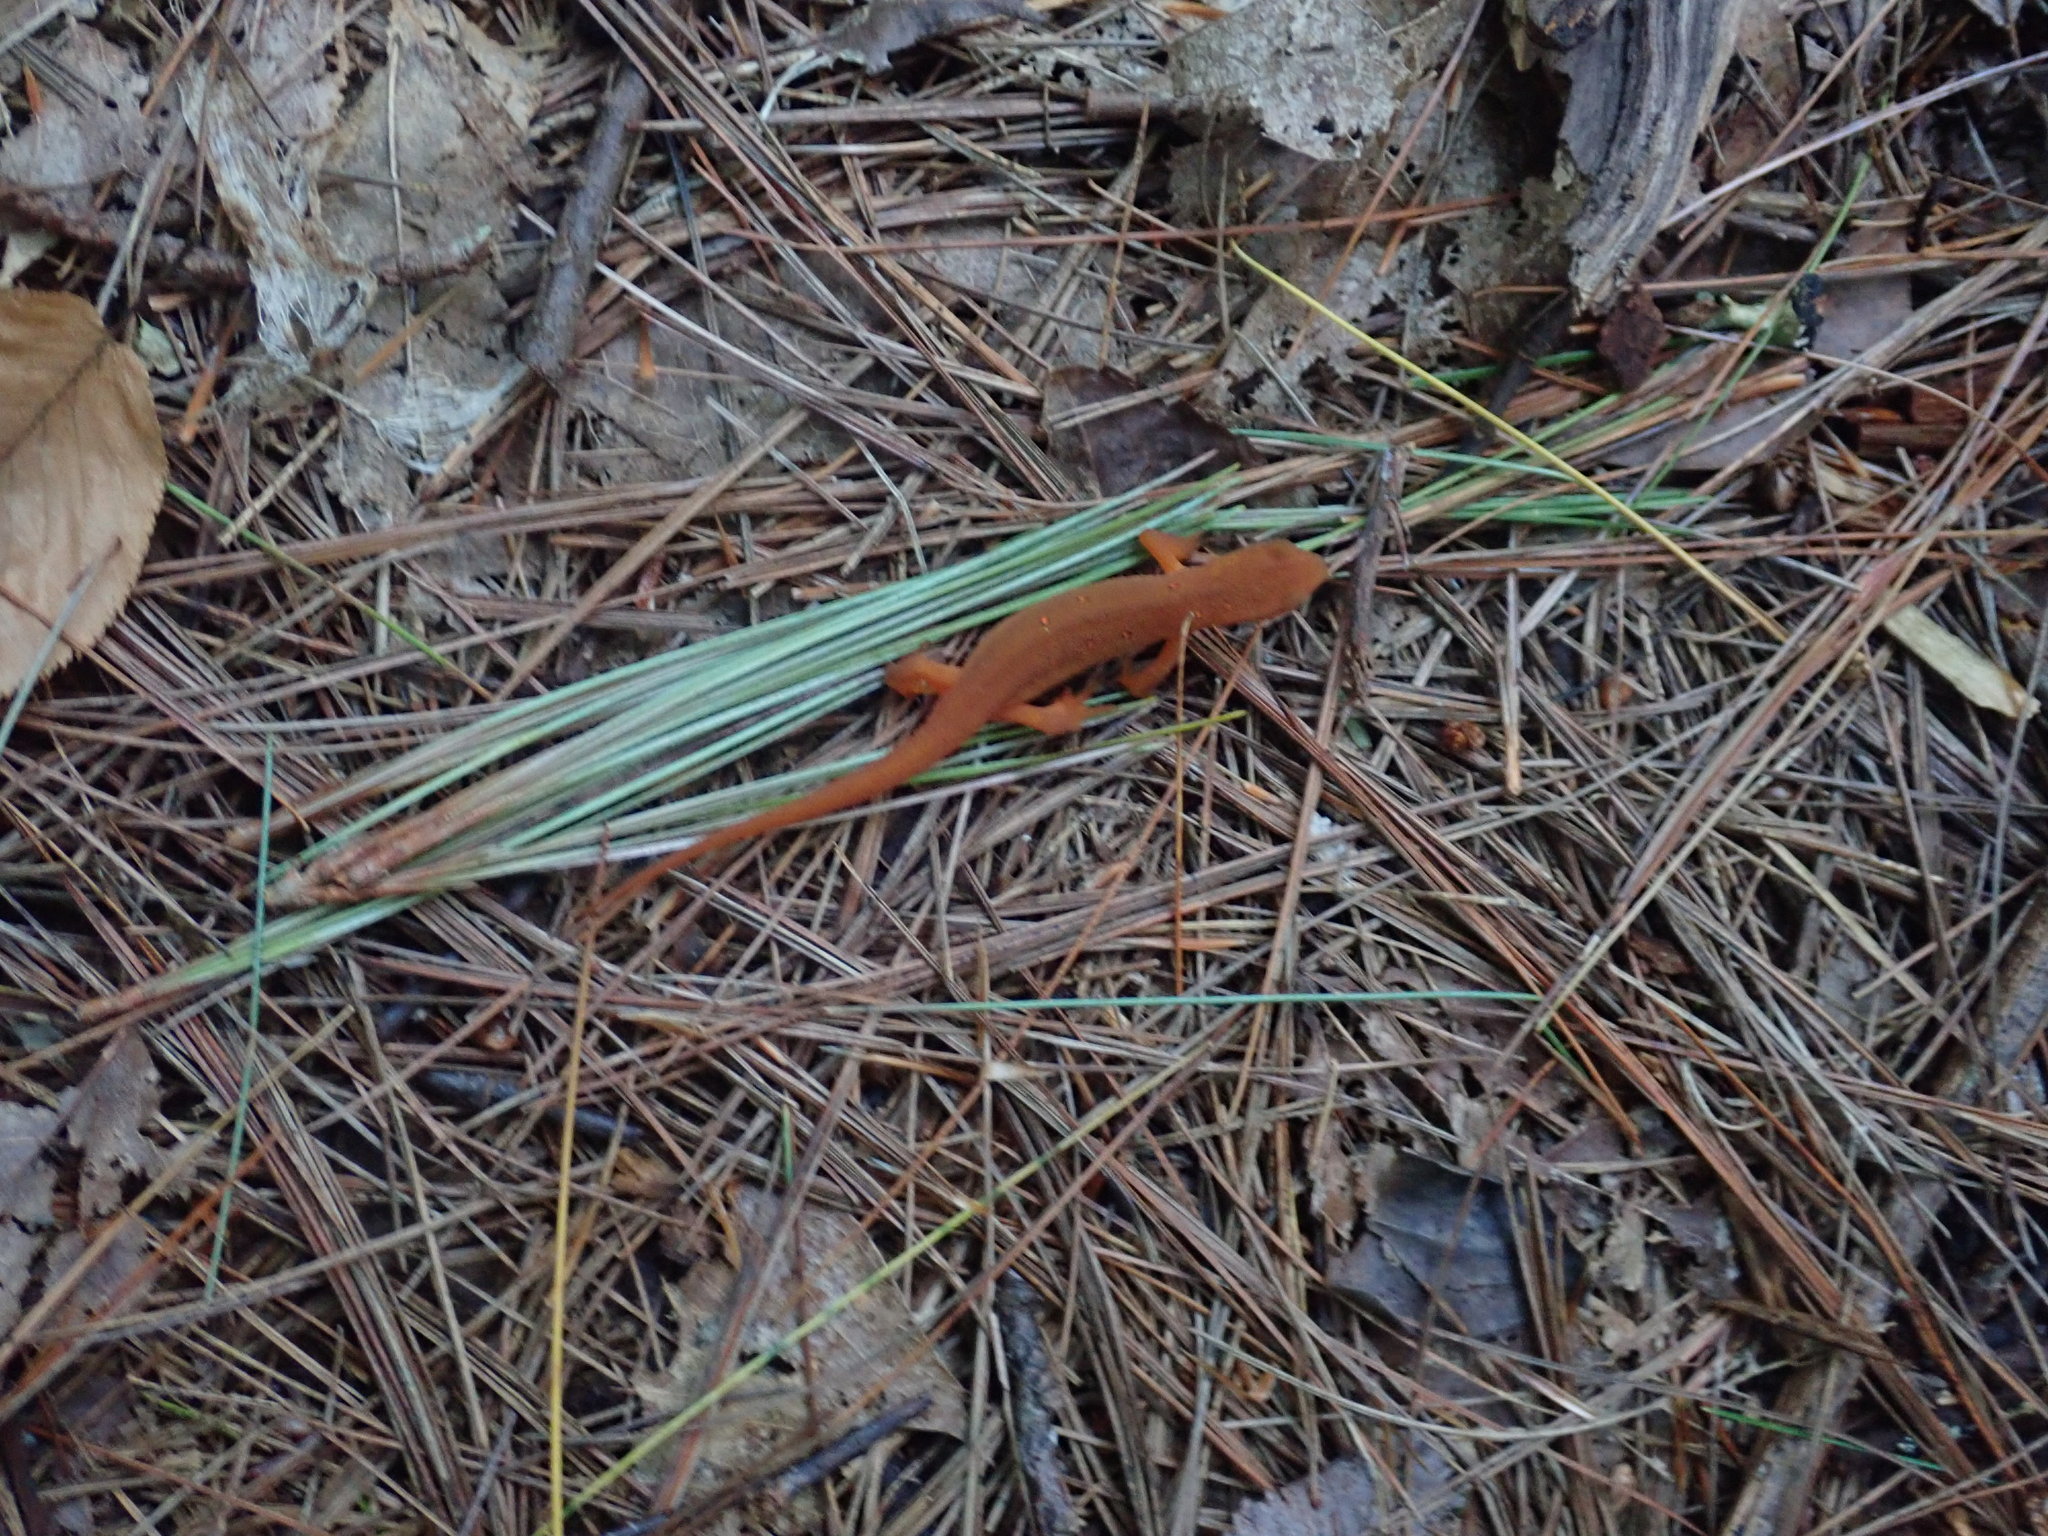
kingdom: Animalia
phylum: Chordata
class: Amphibia
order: Caudata
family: Salamandridae
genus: Notophthalmus
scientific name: Notophthalmus viridescens
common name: Eastern newt
